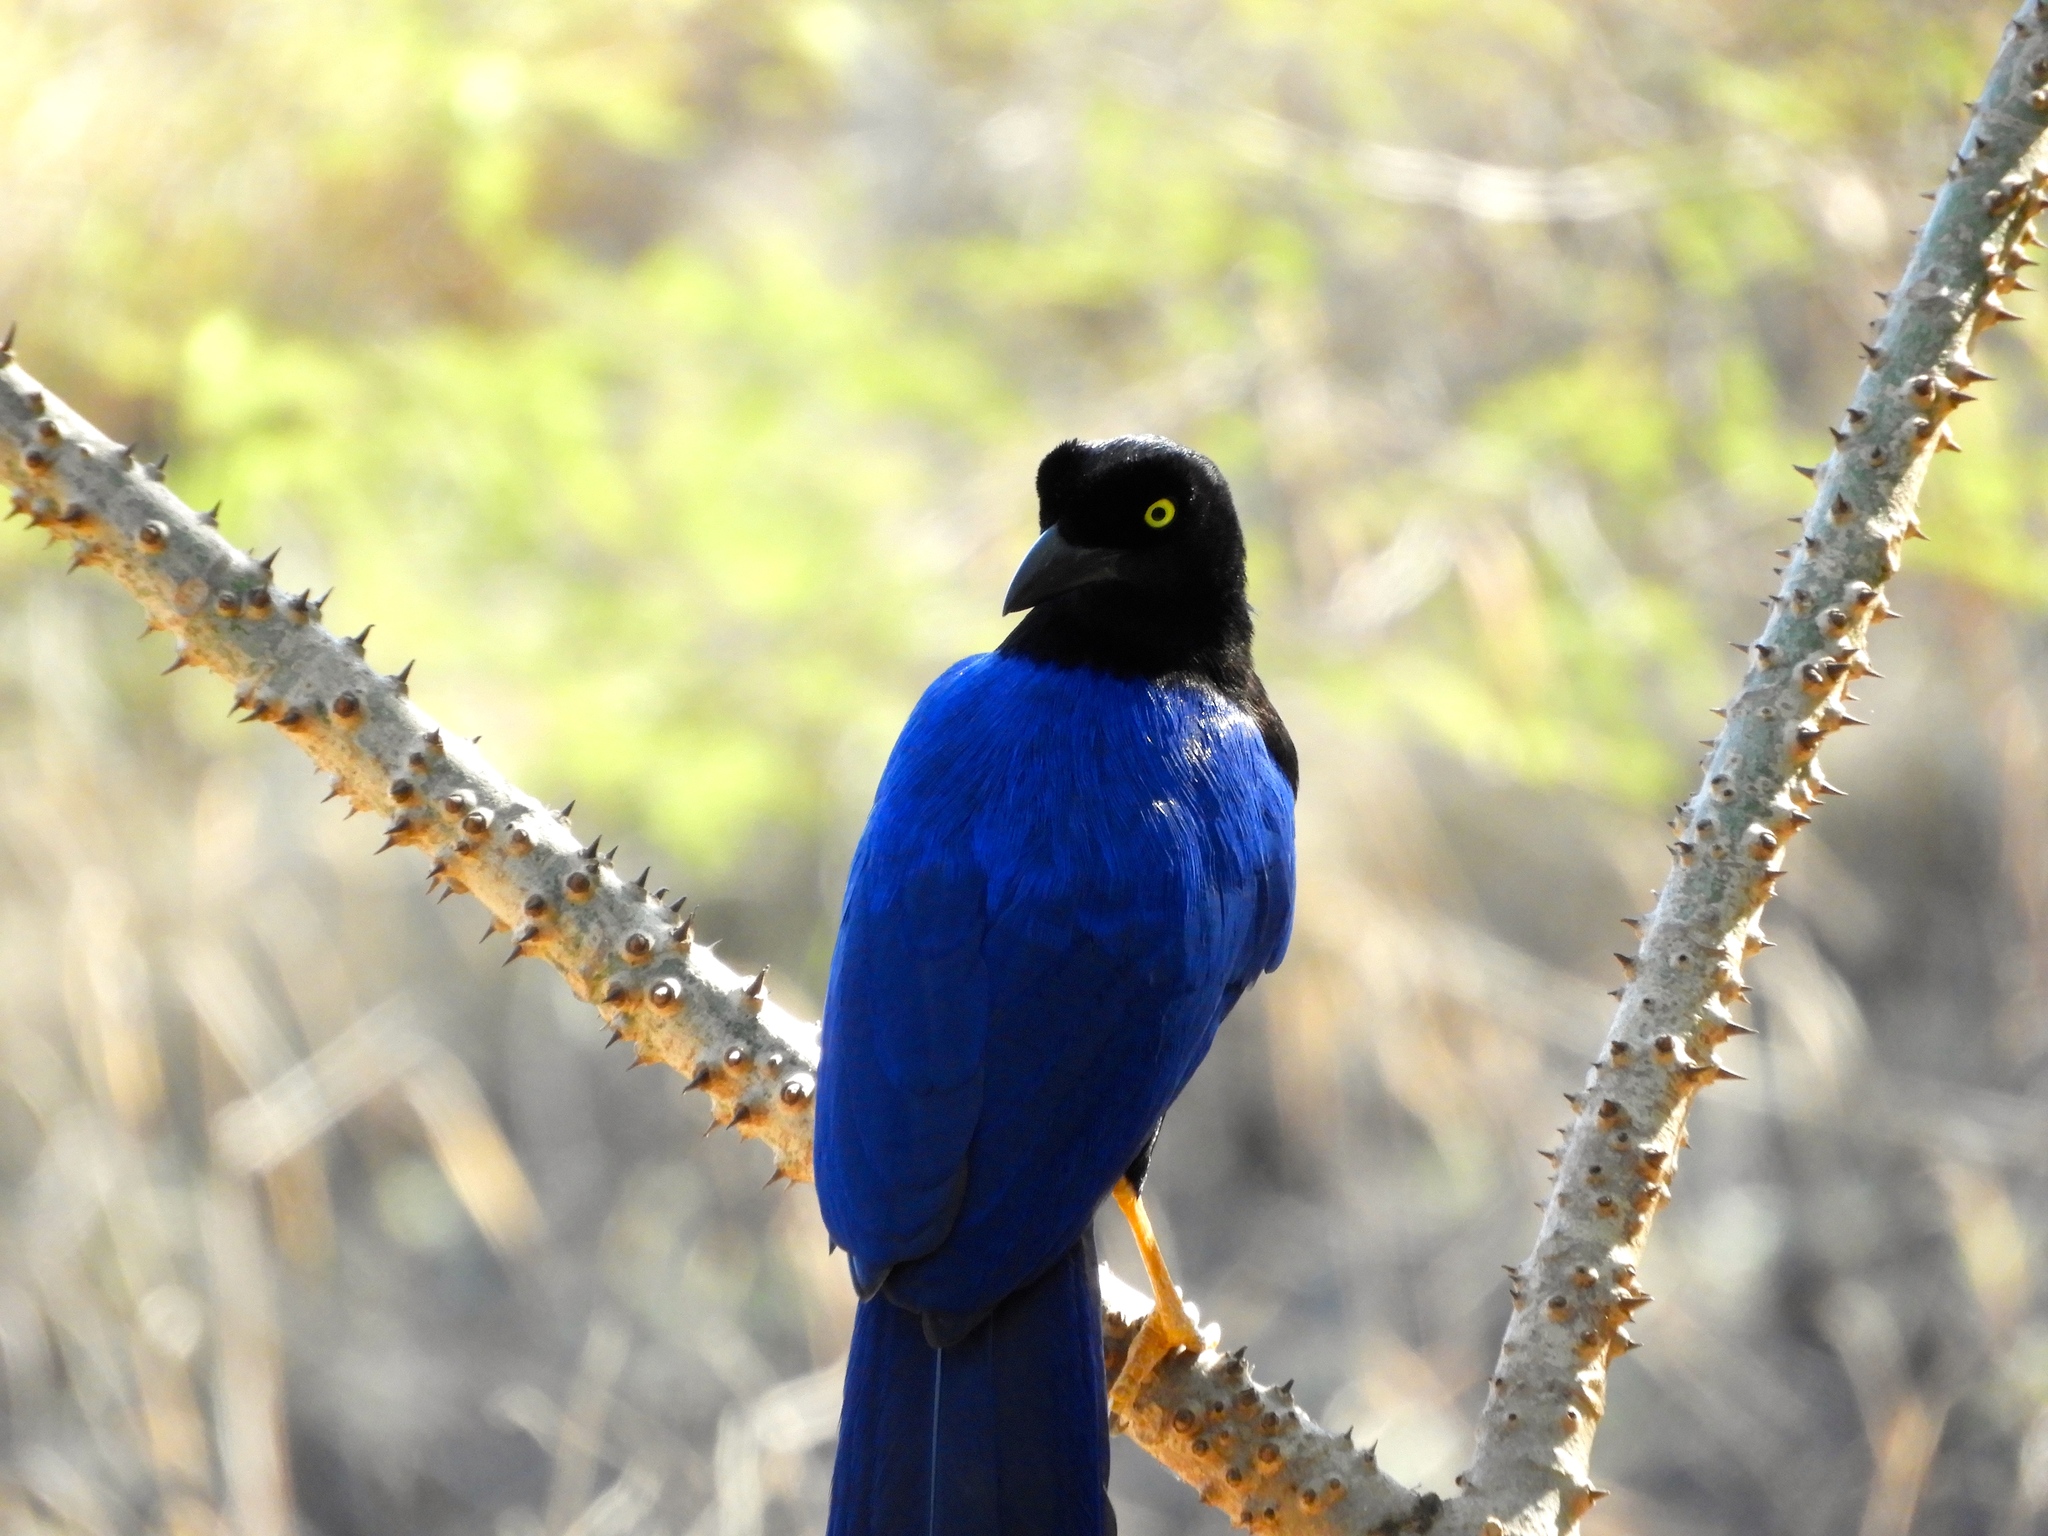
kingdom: Animalia
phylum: Chordata
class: Aves
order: Passeriformes
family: Corvidae
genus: Cyanocorax
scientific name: Cyanocorax beecheii
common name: Purplish-backed jay
